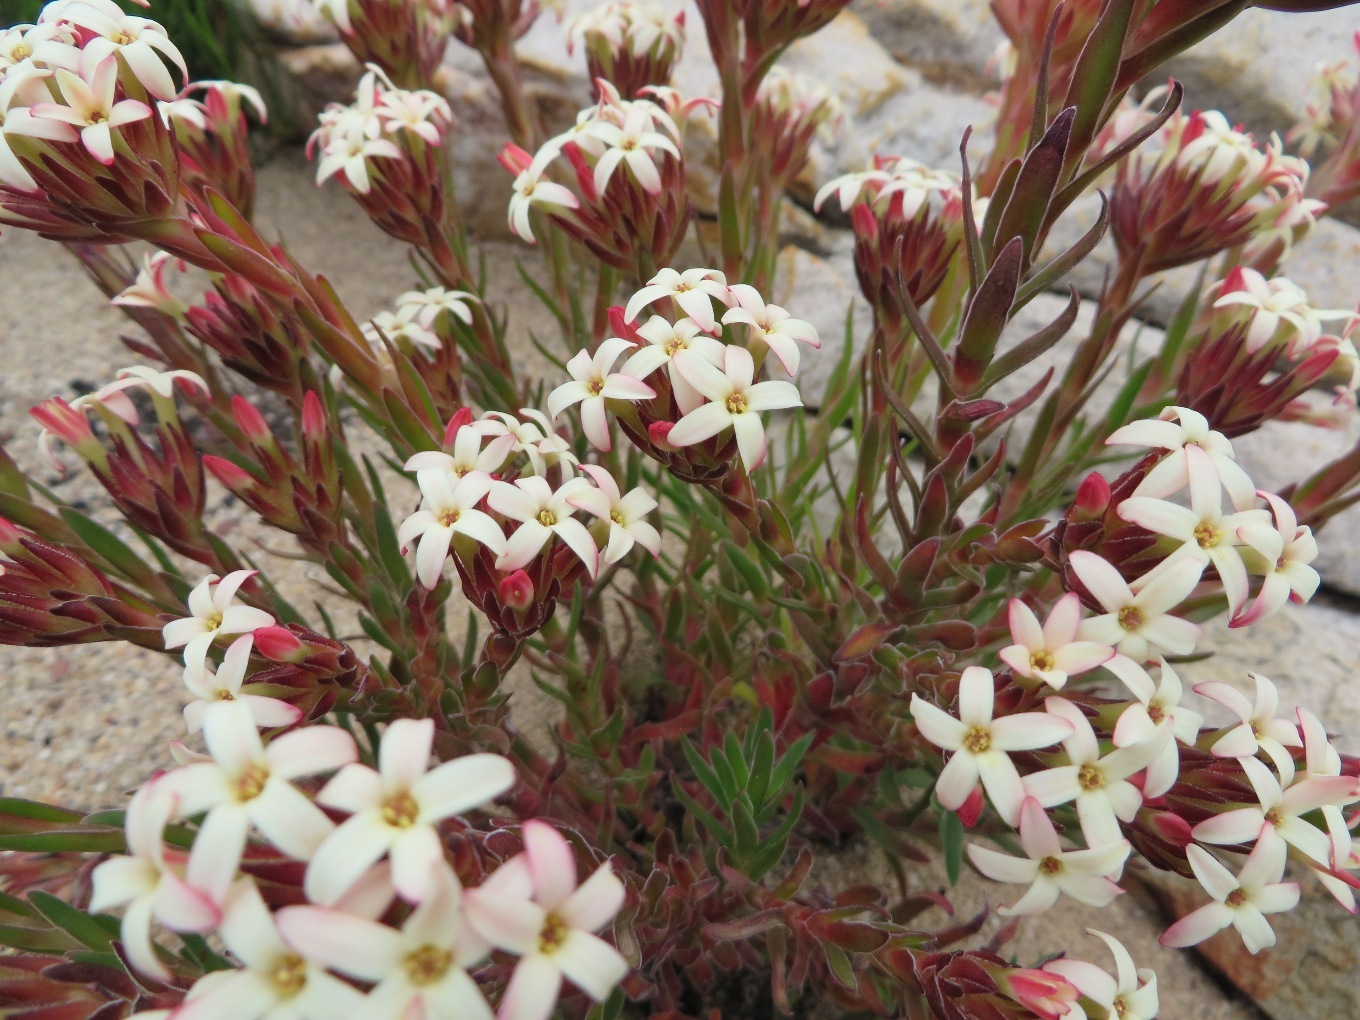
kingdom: Plantae
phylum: Tracheophyta
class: Magnoliopsida
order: Saxifragales
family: Crassulaceae
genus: Crassula
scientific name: Crassula fascicularis
